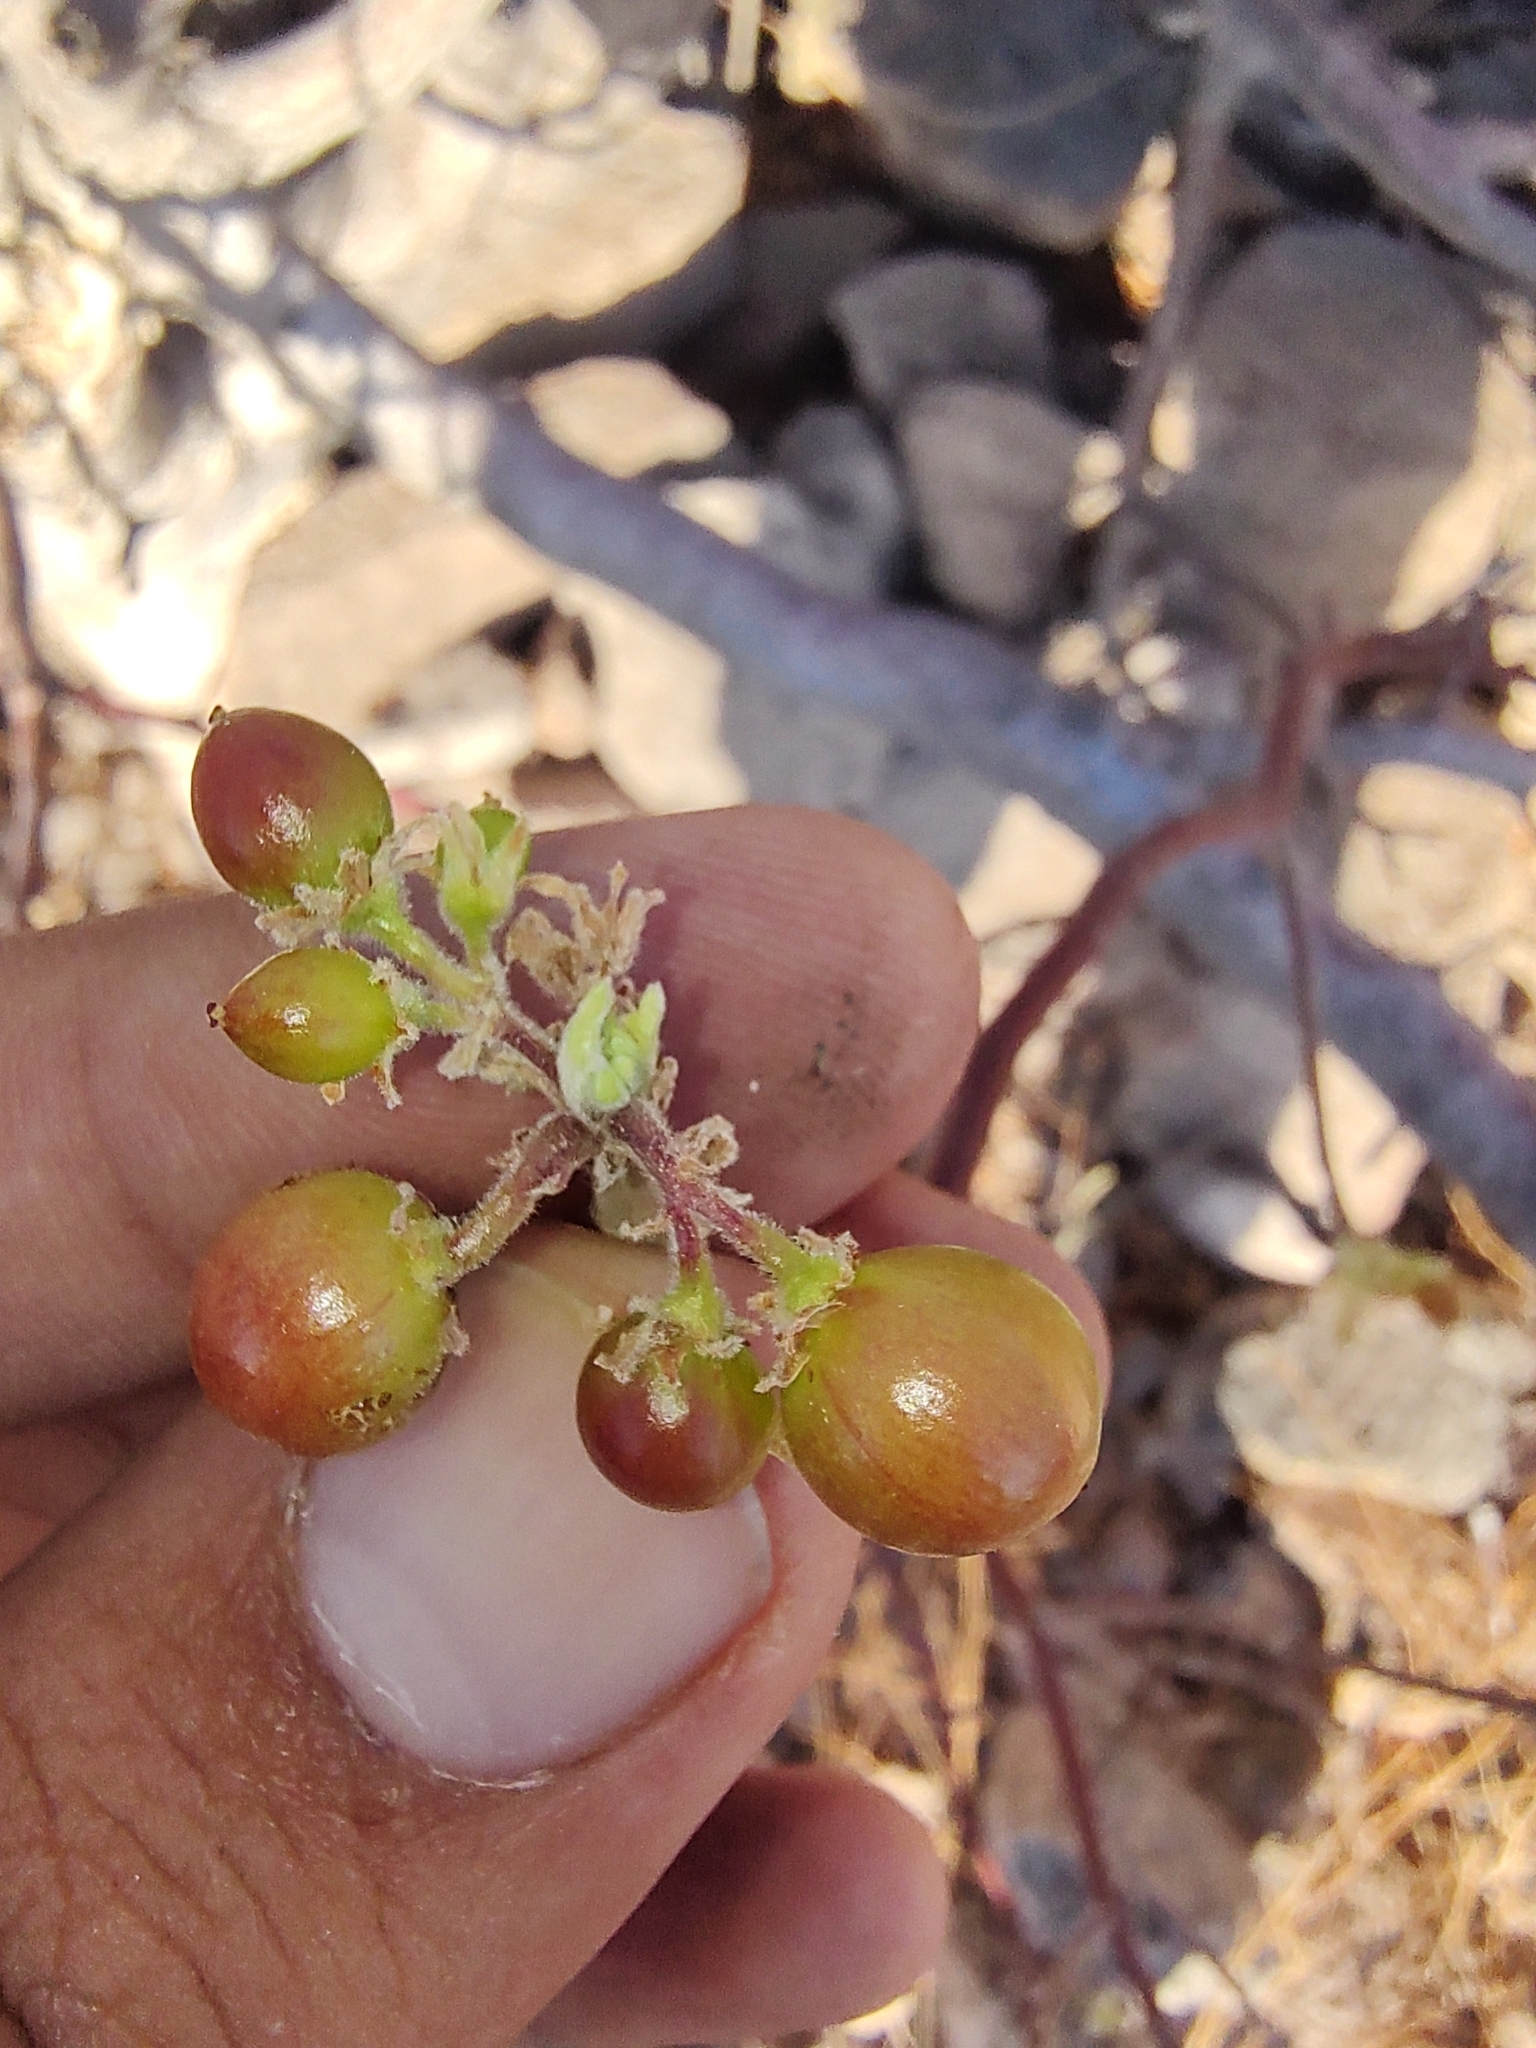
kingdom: Plantae
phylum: Tracheophyta
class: Magnoliopsida
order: Sapindales
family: Burseraceae
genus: Bursera
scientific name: Bursera hindsiana
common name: Red elephant tree
